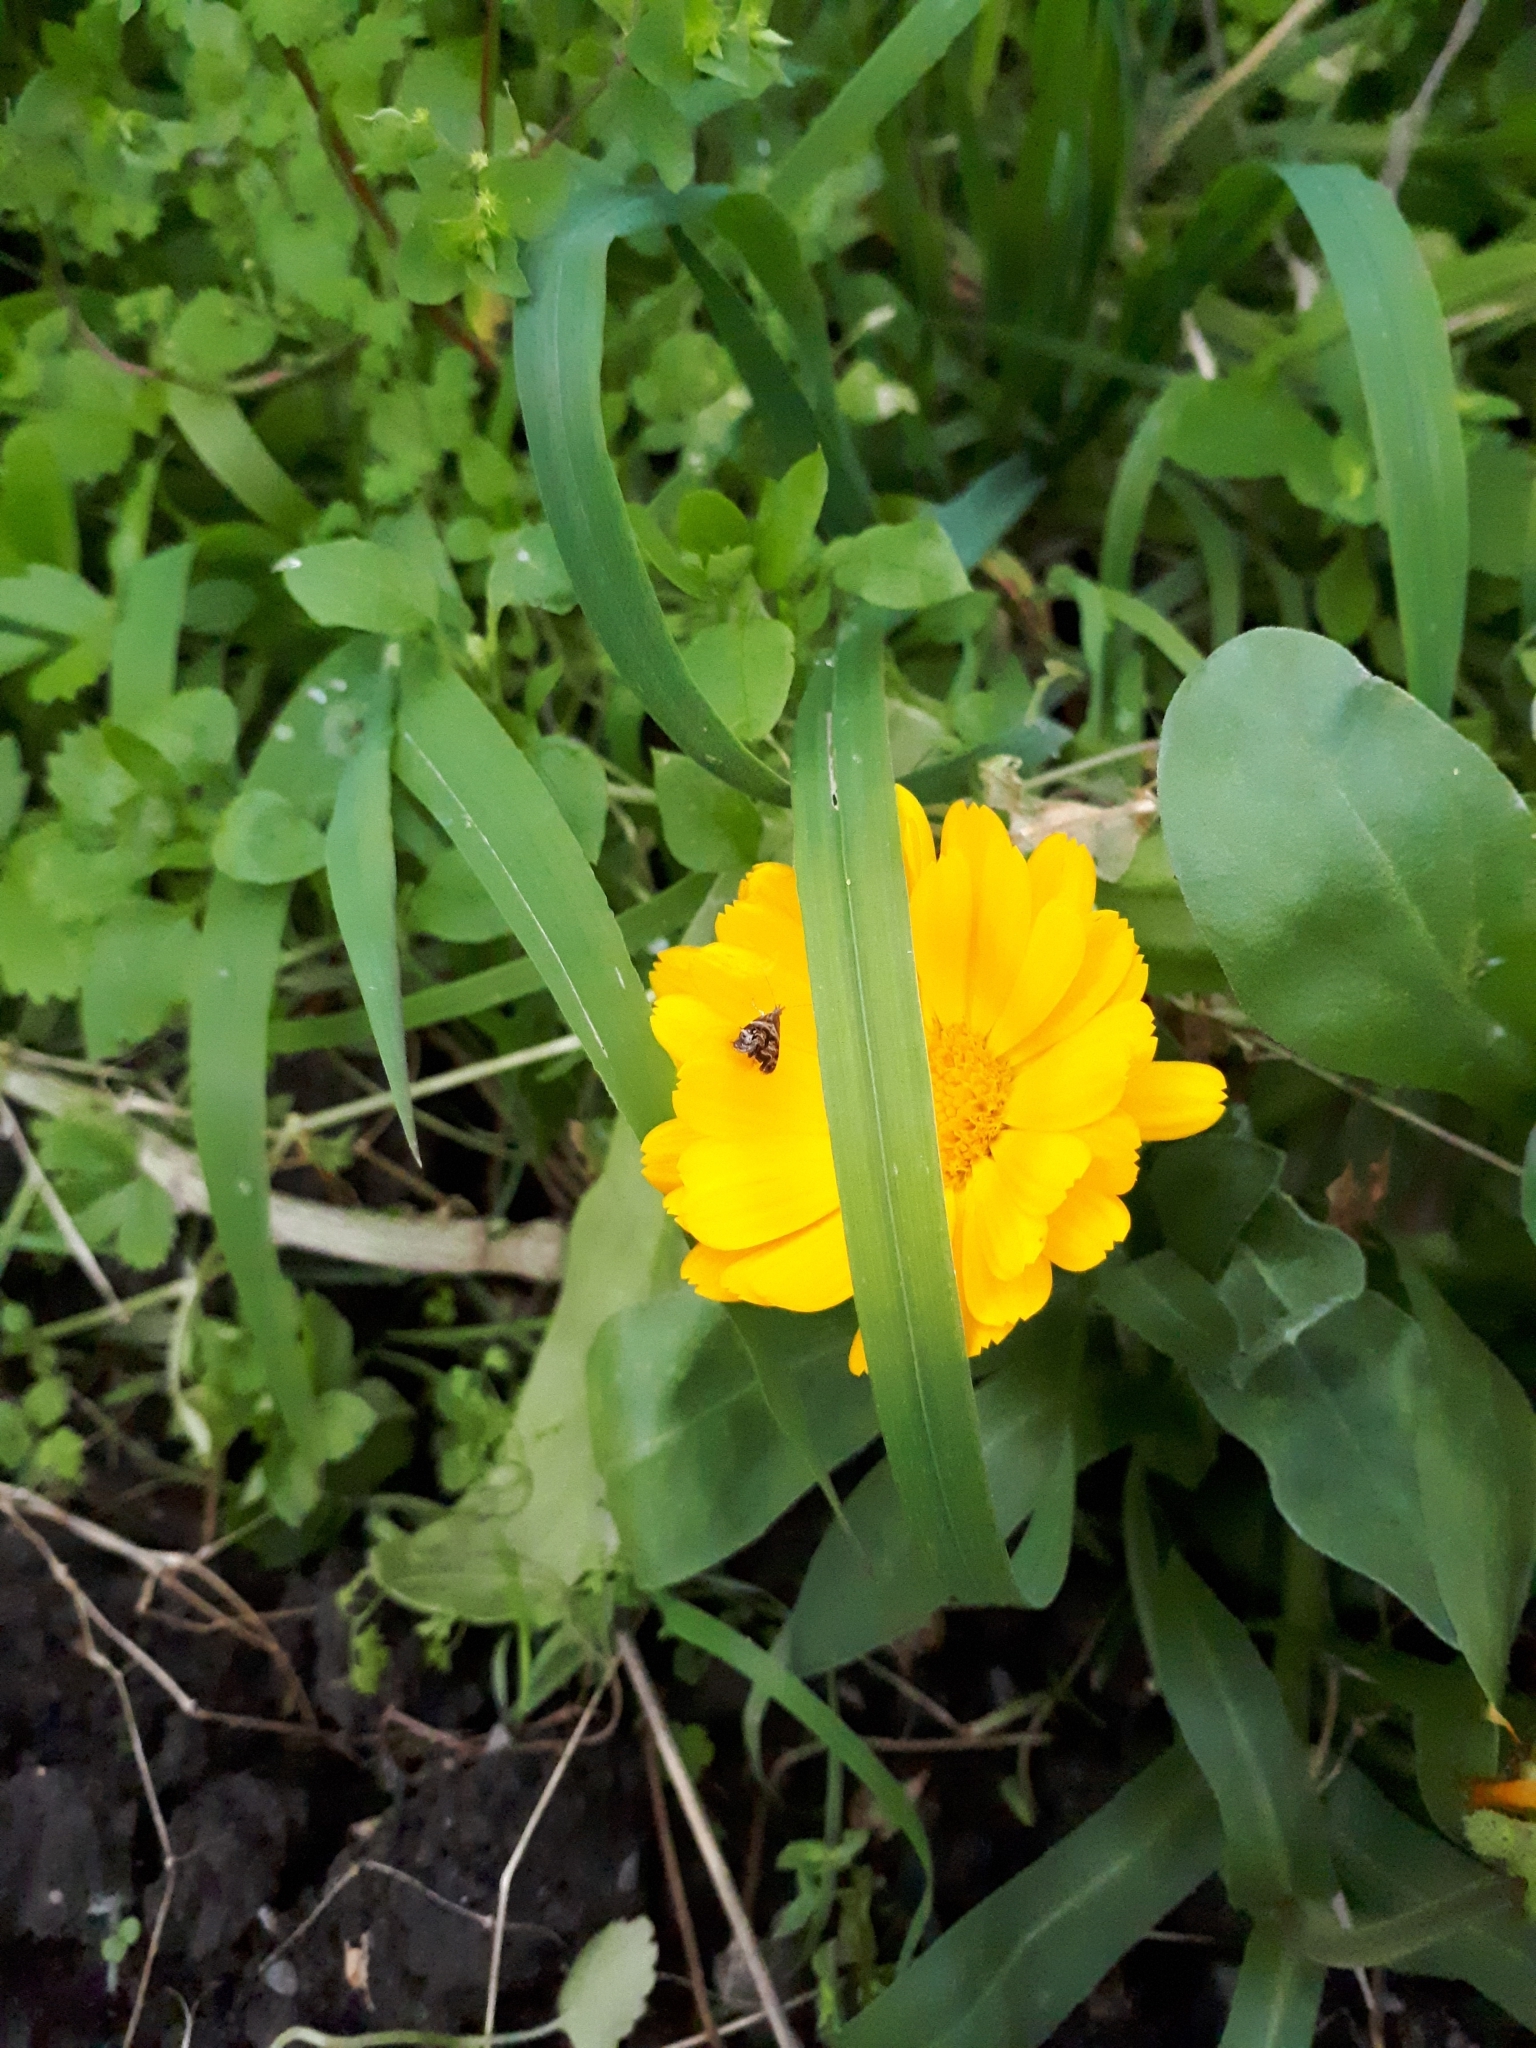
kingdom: Animalia
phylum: Arthropoda
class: Insecta
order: Lepidoptera
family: Choreutidae
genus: Tebenna
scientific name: Tebenna micalis
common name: Vagrant twitcher
